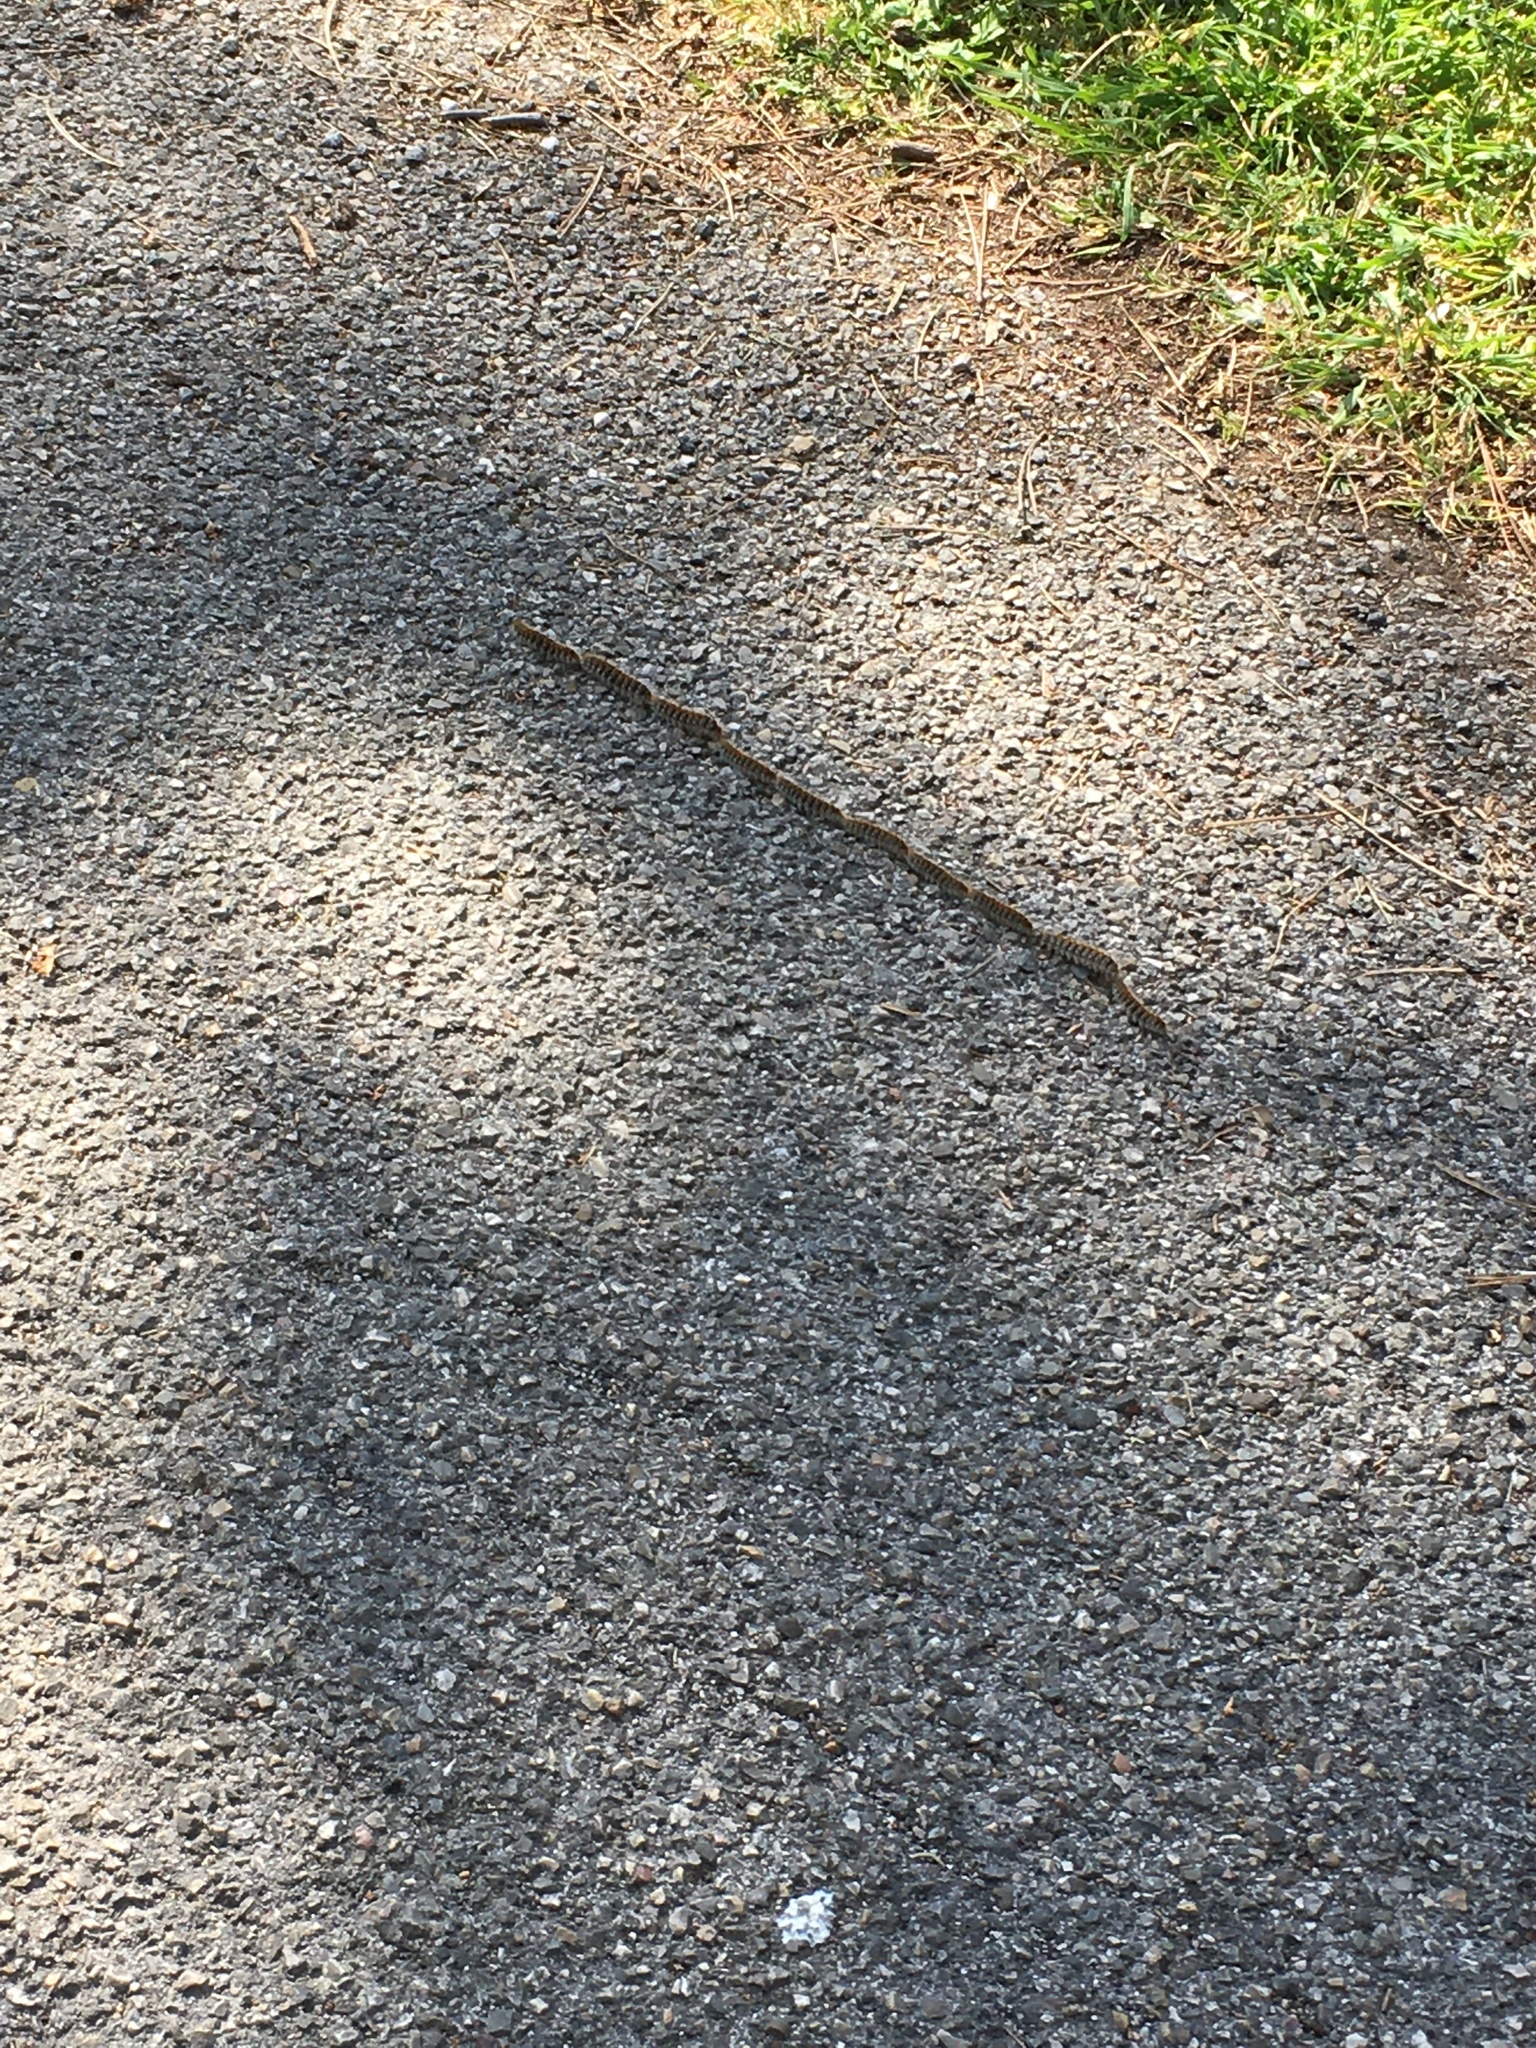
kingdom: Animalia
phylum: Arthropoda
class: Insecta
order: Lepidoptera
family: Notodontidae
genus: Thaumetopoea
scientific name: Thaumetopoea pityocampa
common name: Pine processionary
